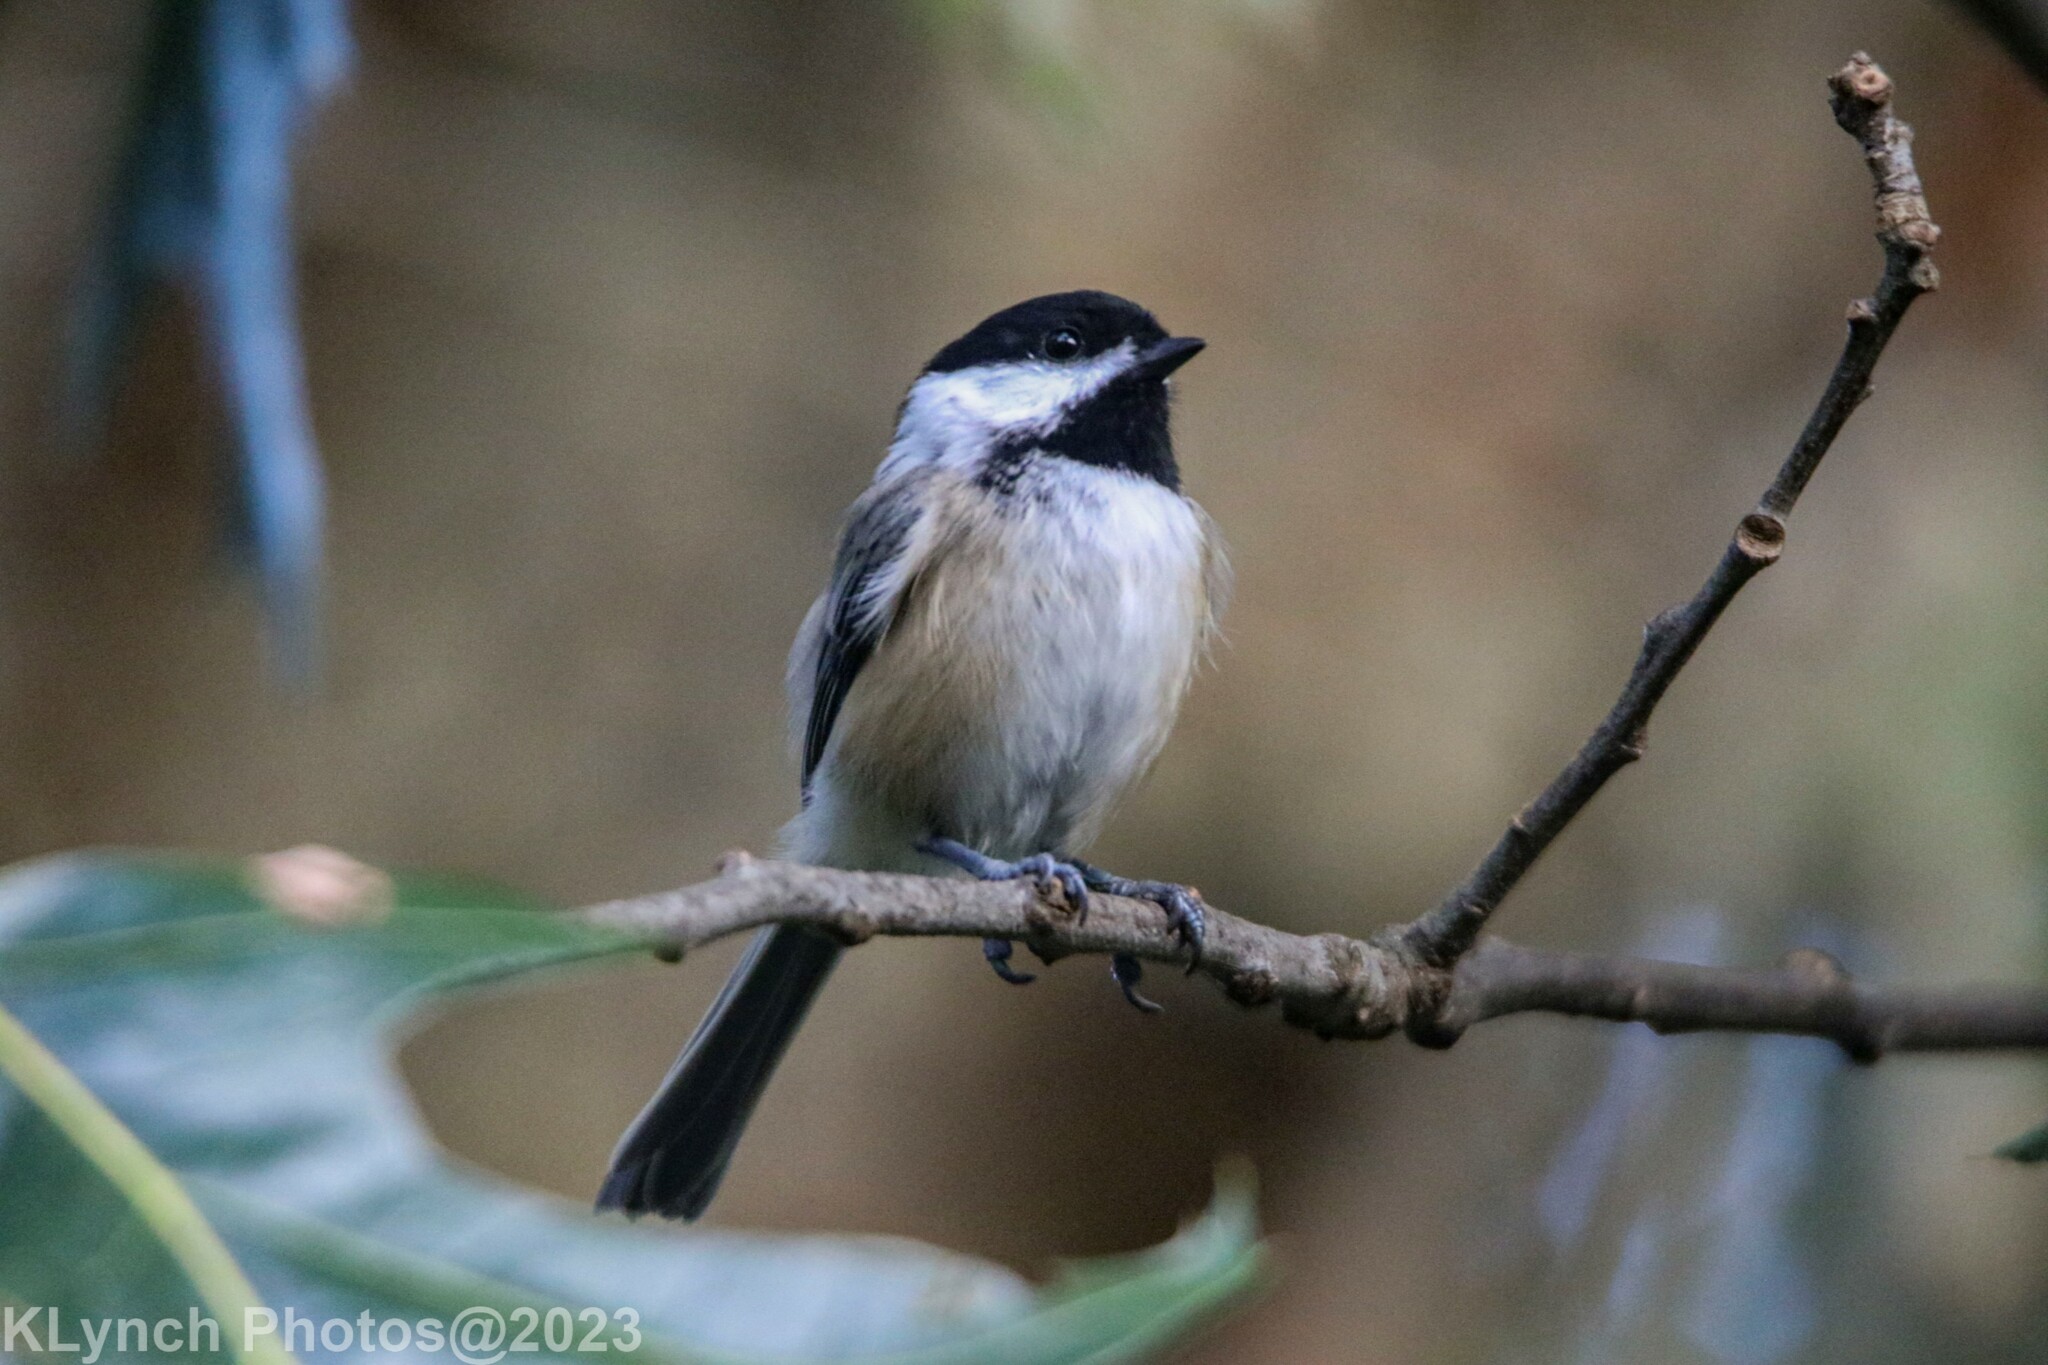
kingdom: Animalia
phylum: Chordata
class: Aves
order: Passeriformes
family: Paridae
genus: Poecile
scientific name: Poecile atricapillus
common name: Black-capped chickadee
